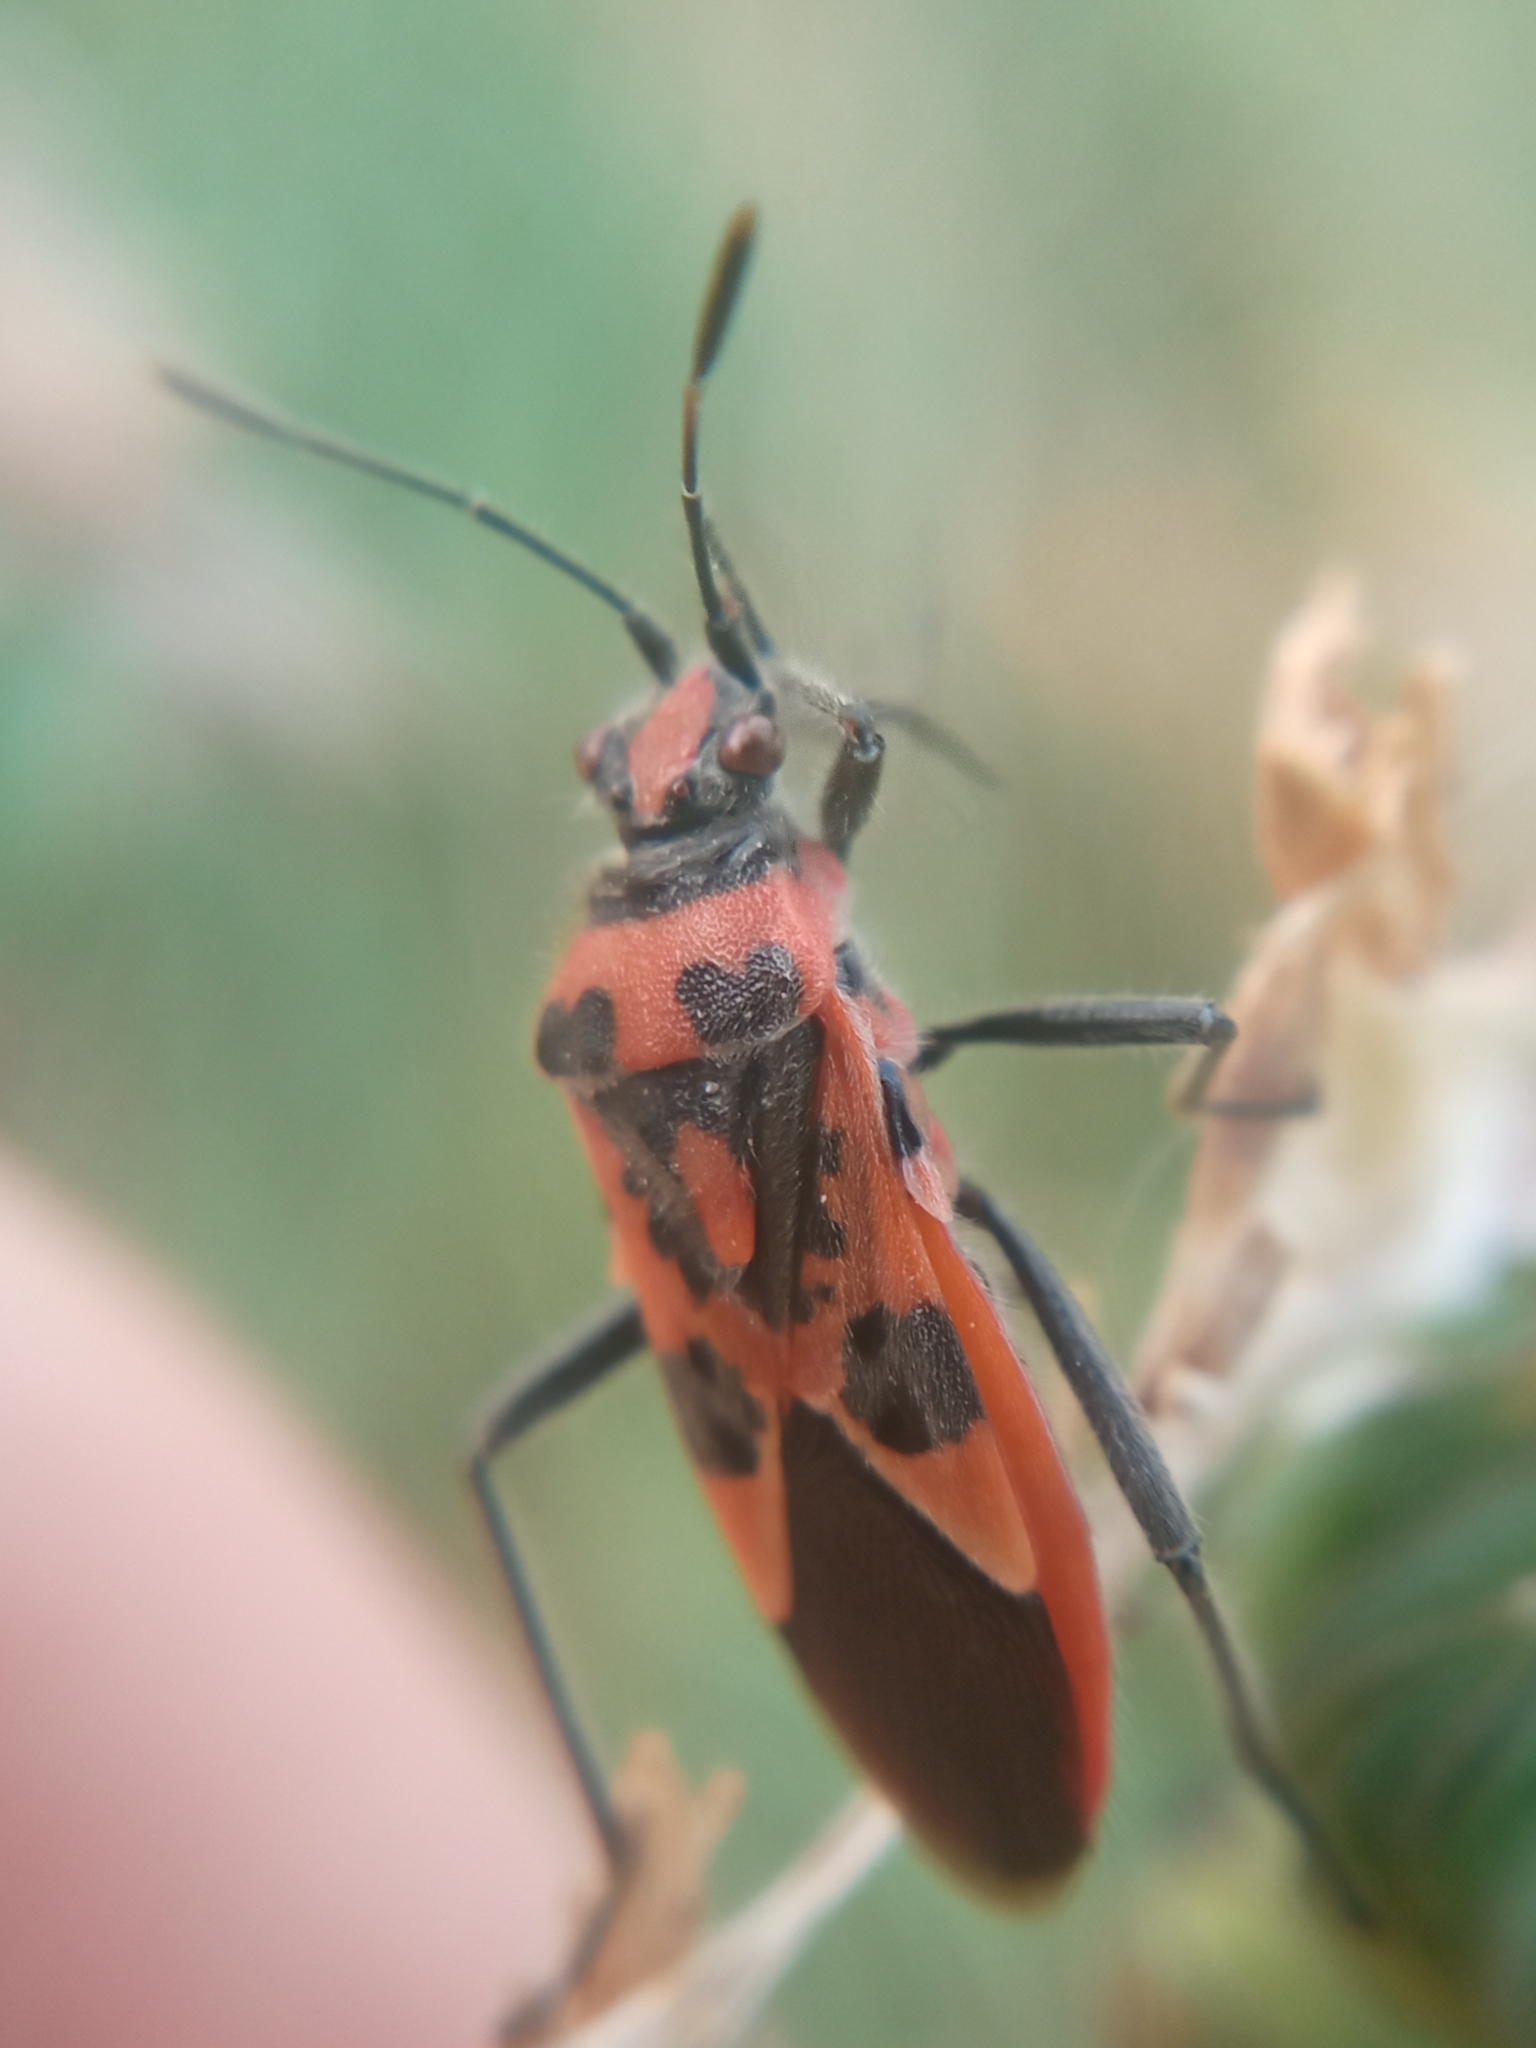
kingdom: Animalia
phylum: Arthropoda
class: Insecta
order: Hemiptera
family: Rhopalidae
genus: Corizus
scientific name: Corizus hyoscyami
